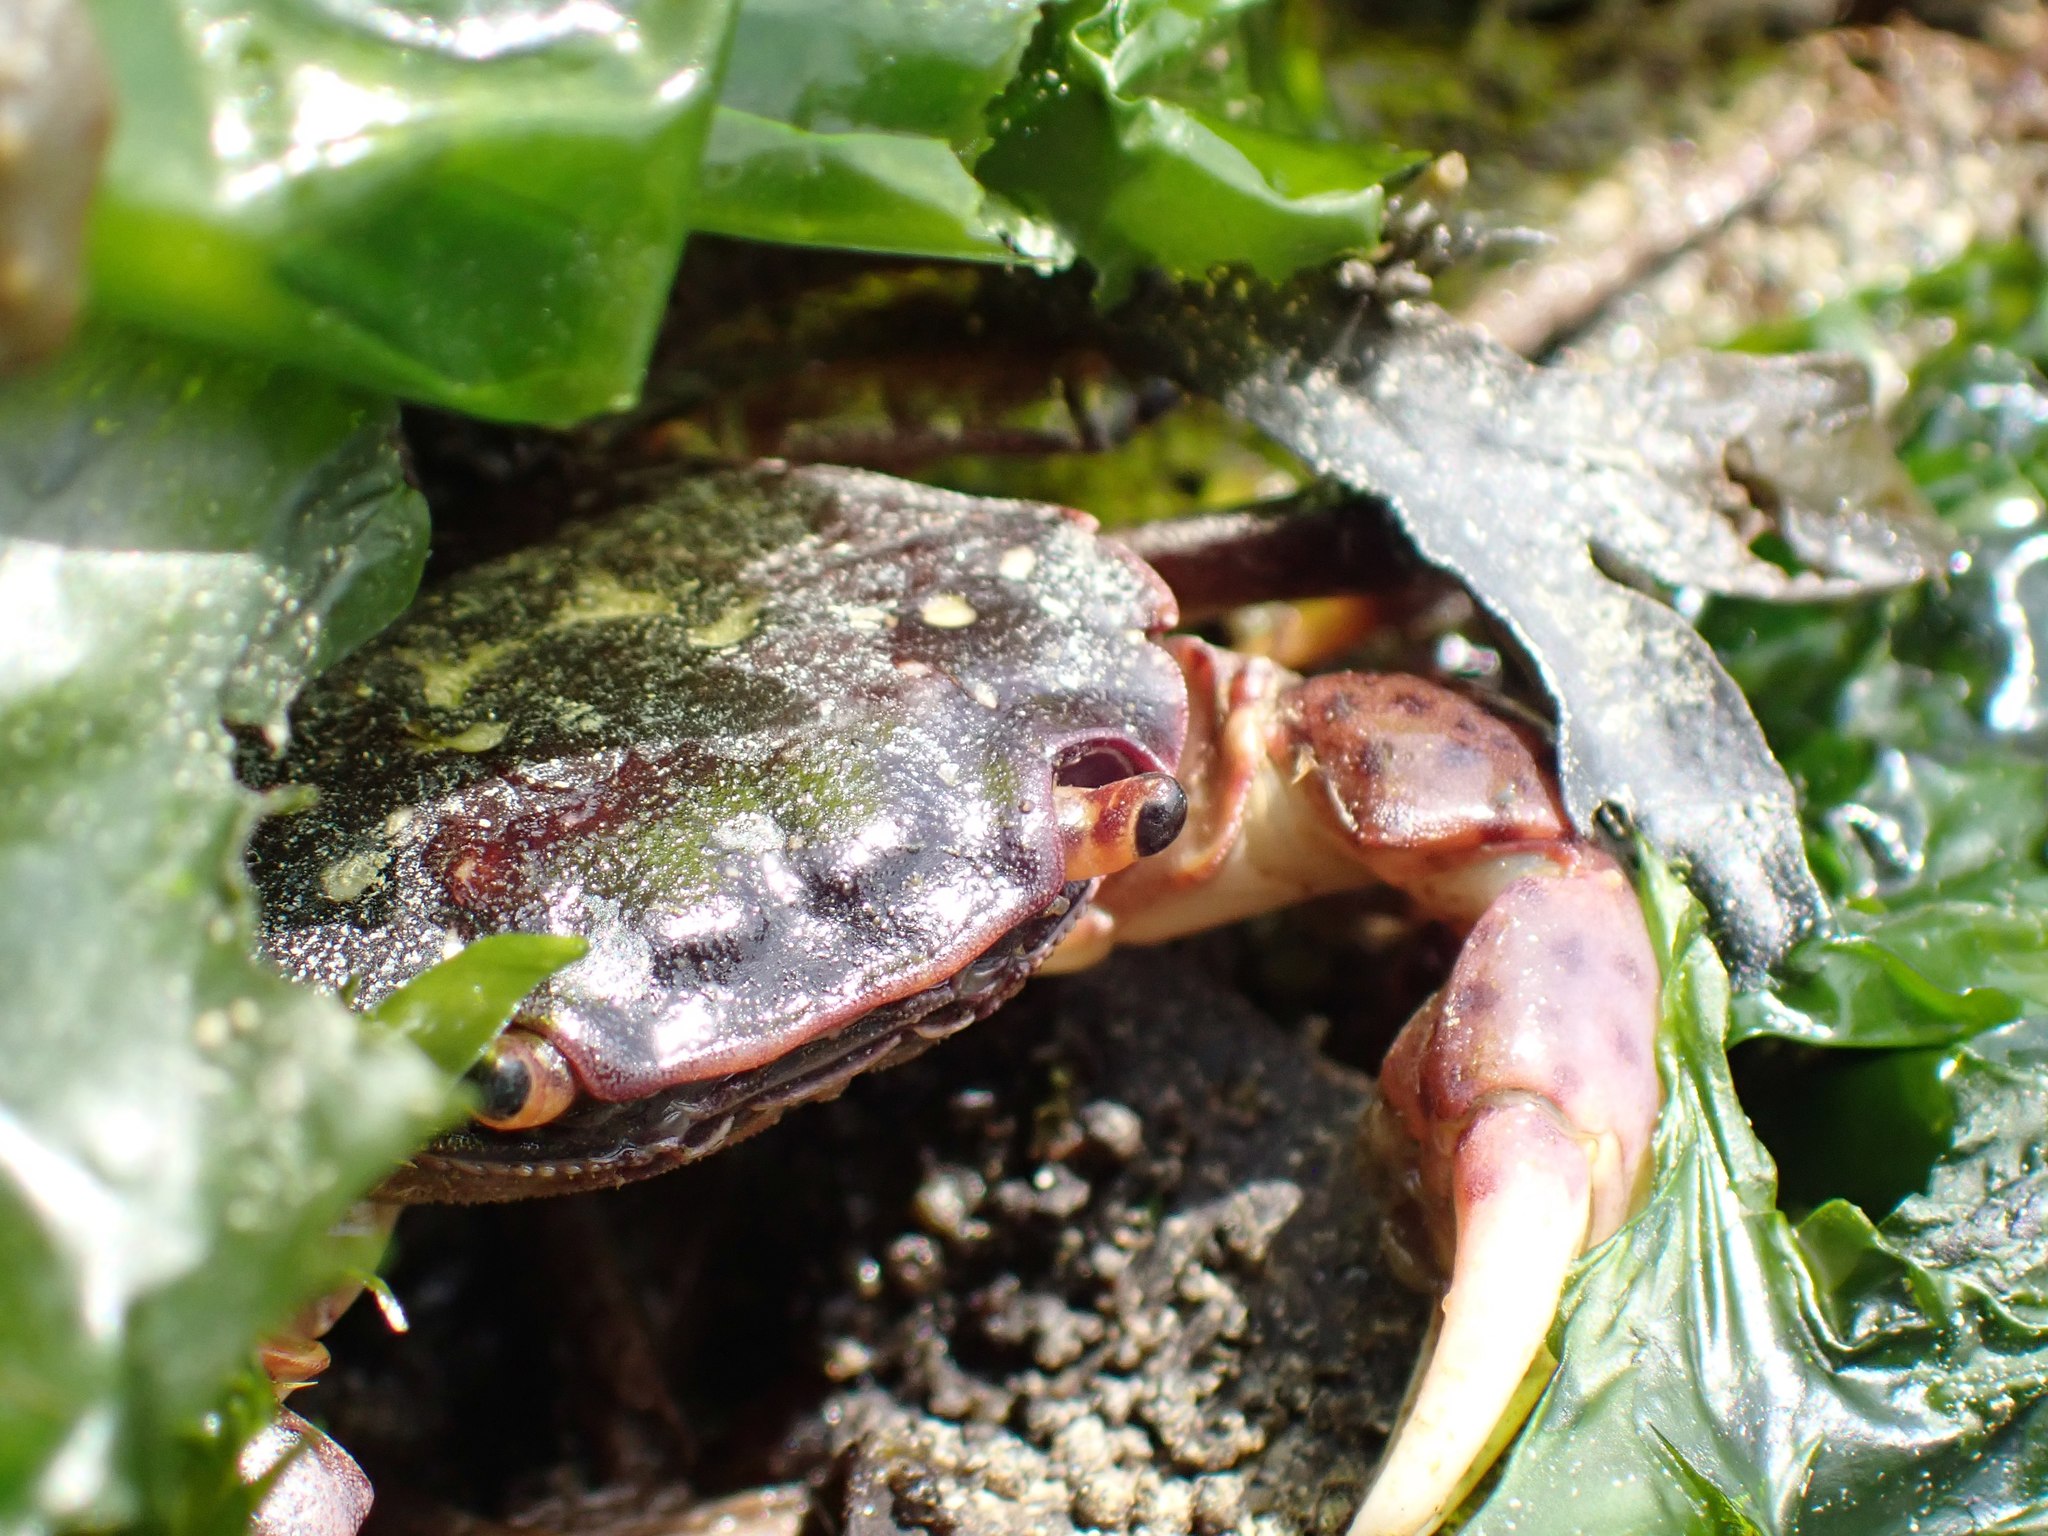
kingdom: Animalia
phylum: Arthropoda
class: Malacostraca
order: Decapoda
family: Varunidae
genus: Hemigrapsus
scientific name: Hemigrapsus nudus
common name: Purple shore crab
